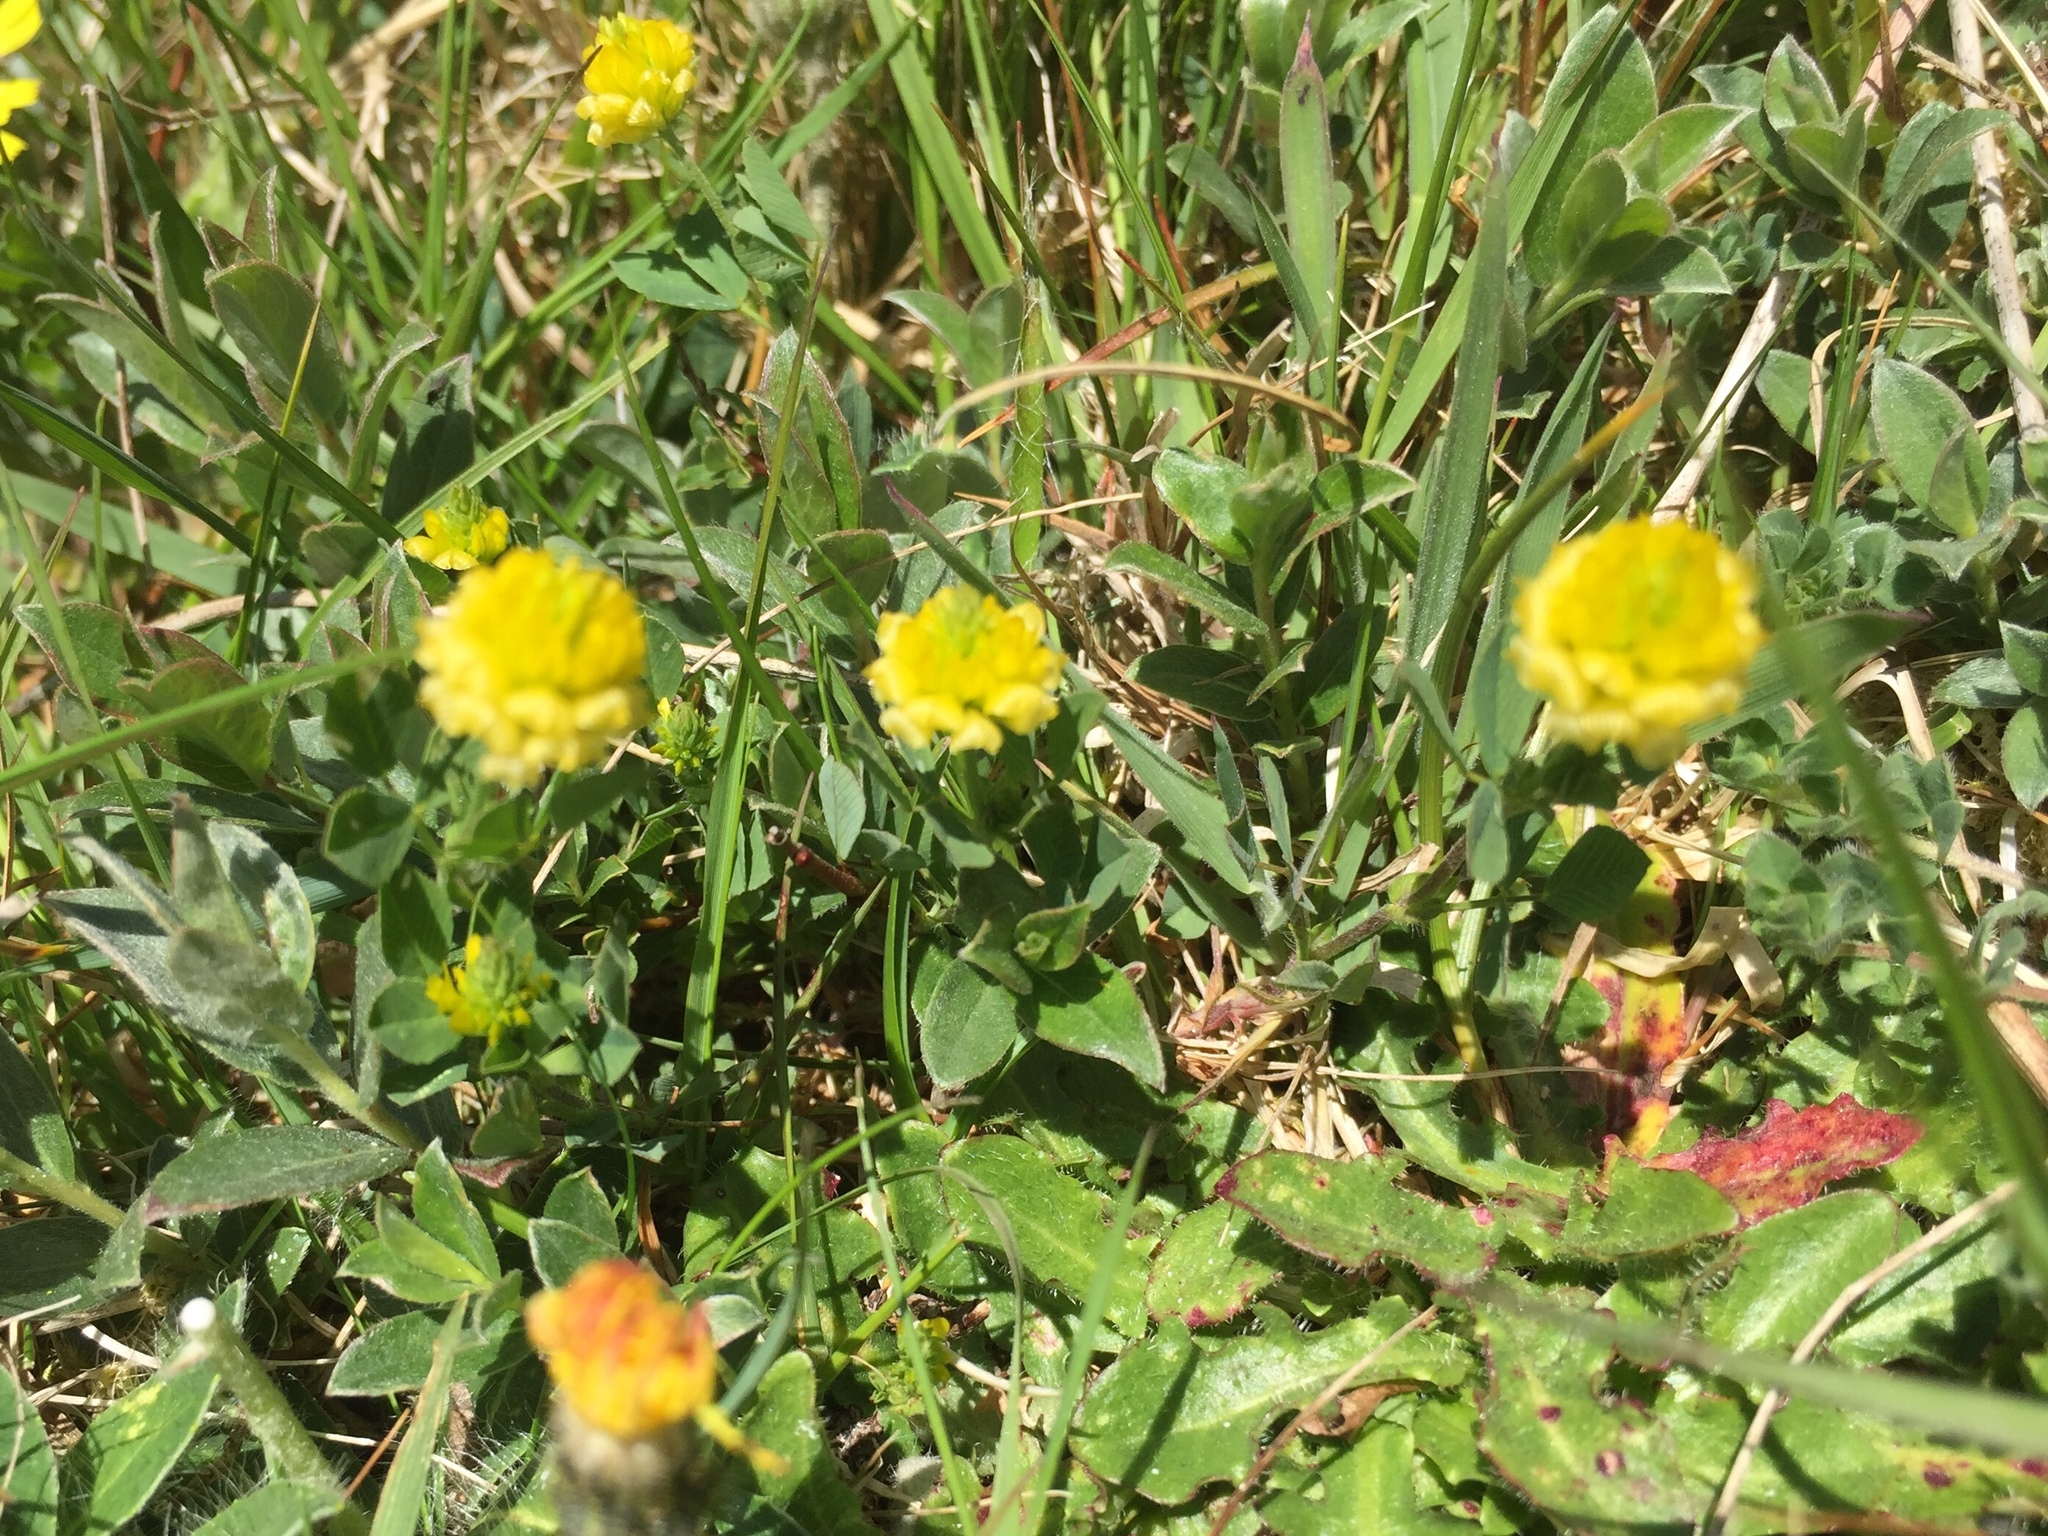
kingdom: Plantae
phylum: Tracheophyta
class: Magnoliopsida
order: Fabales
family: Fabaceae
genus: Trifolium
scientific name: Trifolium campestre
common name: Field clover
